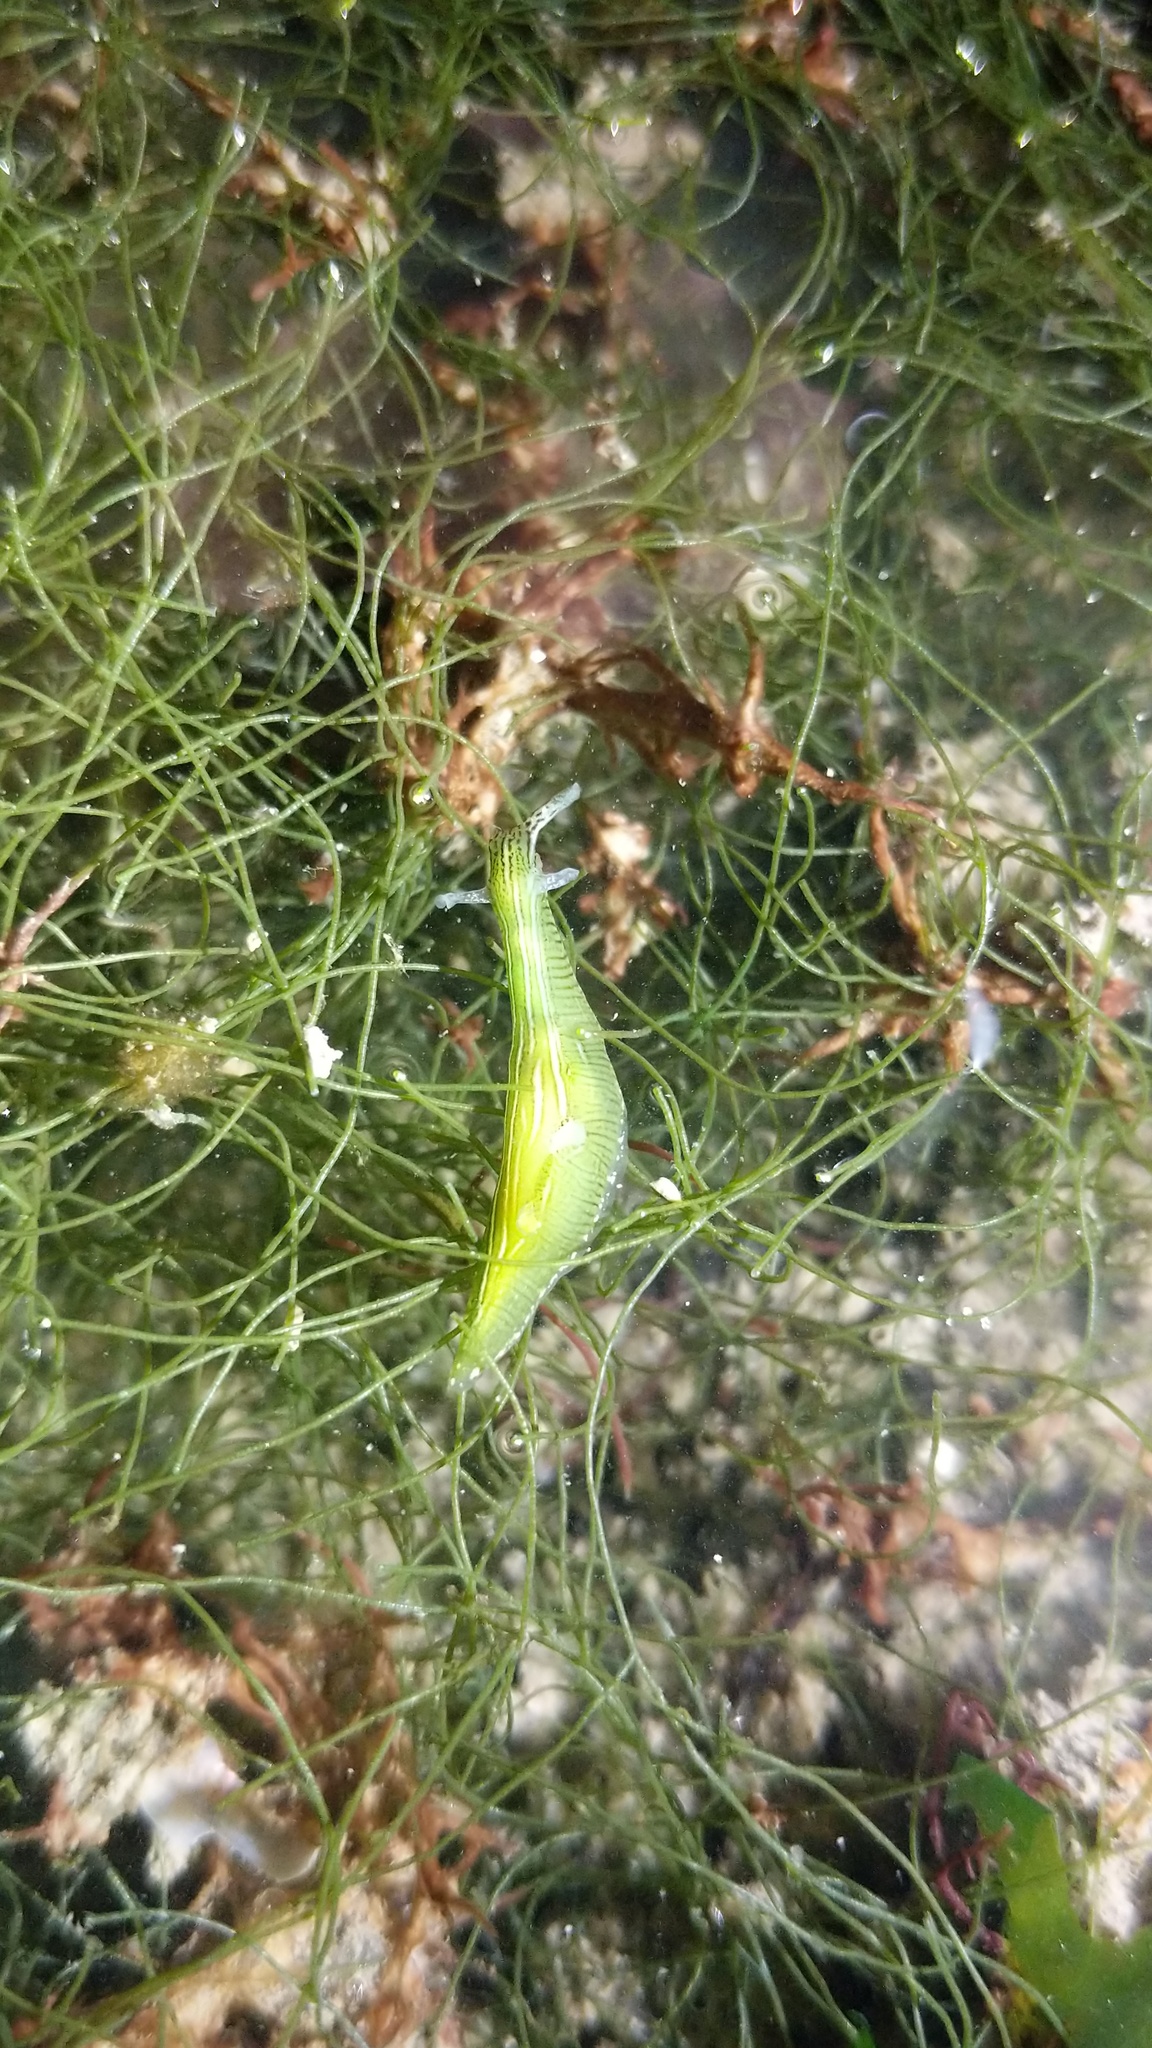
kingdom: Animalia
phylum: Mollusca
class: Gastropoda
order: Aplysiida
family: Aplysiidae
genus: Phyllaplysia
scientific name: Phyllaplysia taylori
